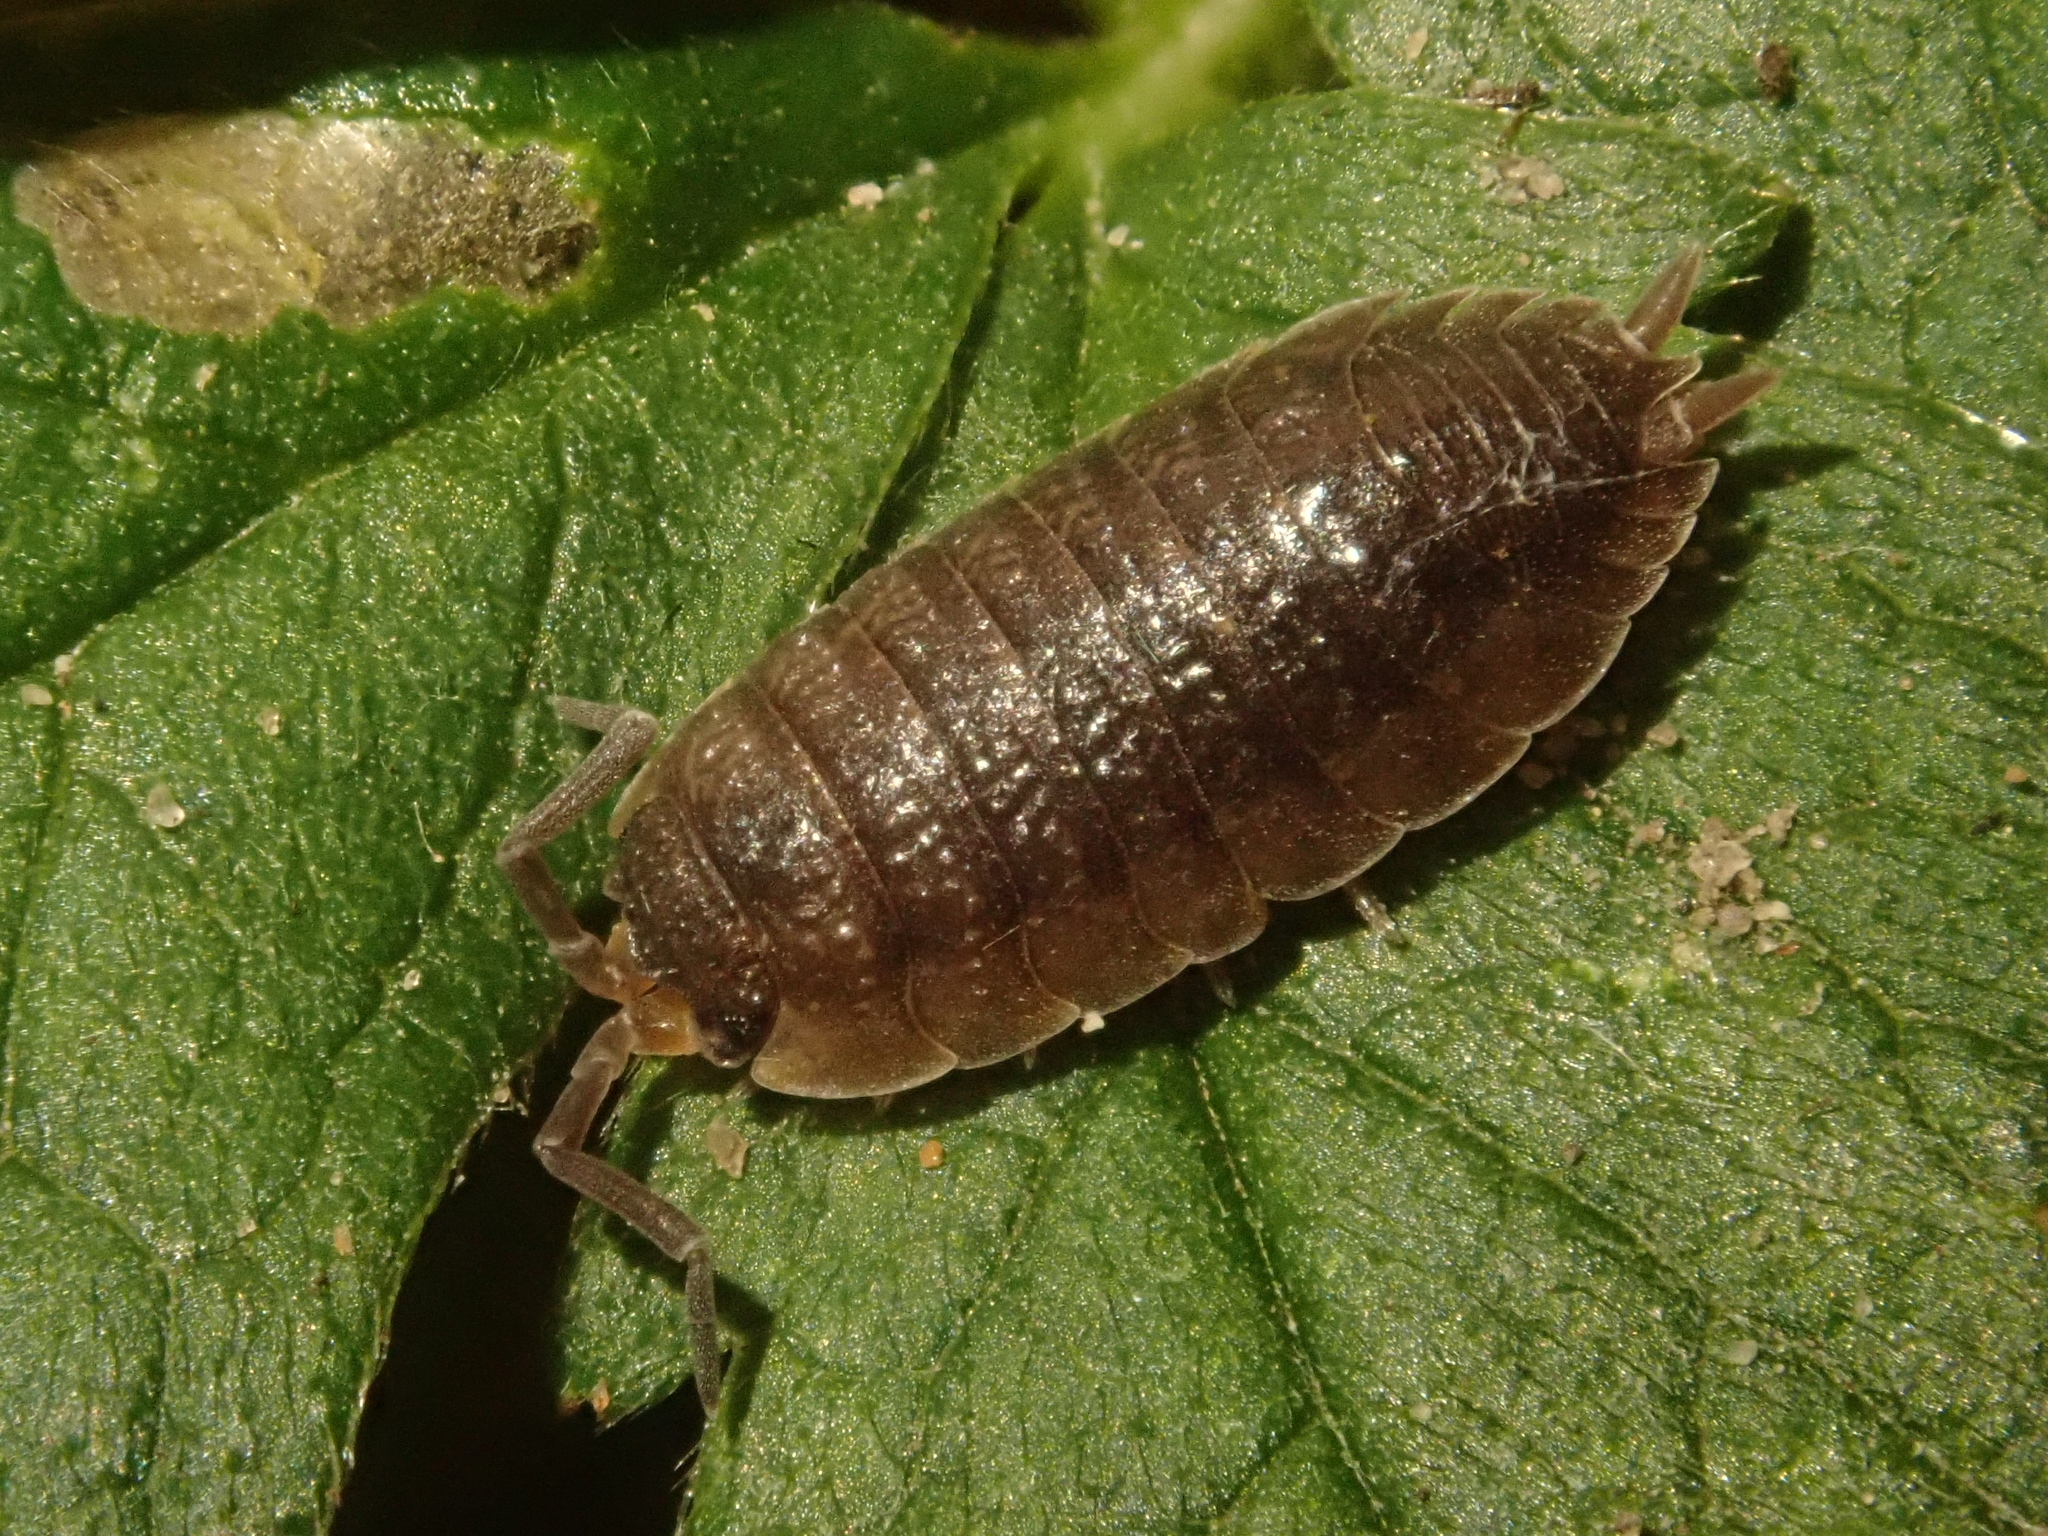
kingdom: Animalia
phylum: Arthropoda
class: Malacostraca
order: Isopoda
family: Porcellionidae
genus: Porcellio
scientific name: Porcellio scaber
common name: Common rough woodlouse
